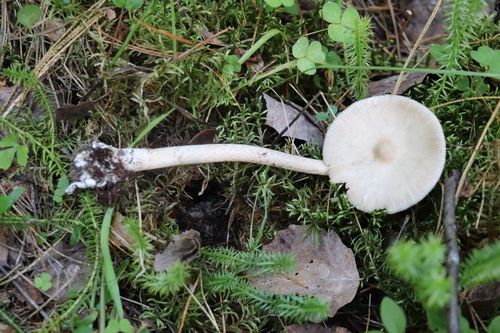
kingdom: Fungi
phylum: Basidiomycota
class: Agaricomycetes
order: Agaricales
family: Amanitaceae
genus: Amanita
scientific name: Amanita vaginata
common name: Grisette
